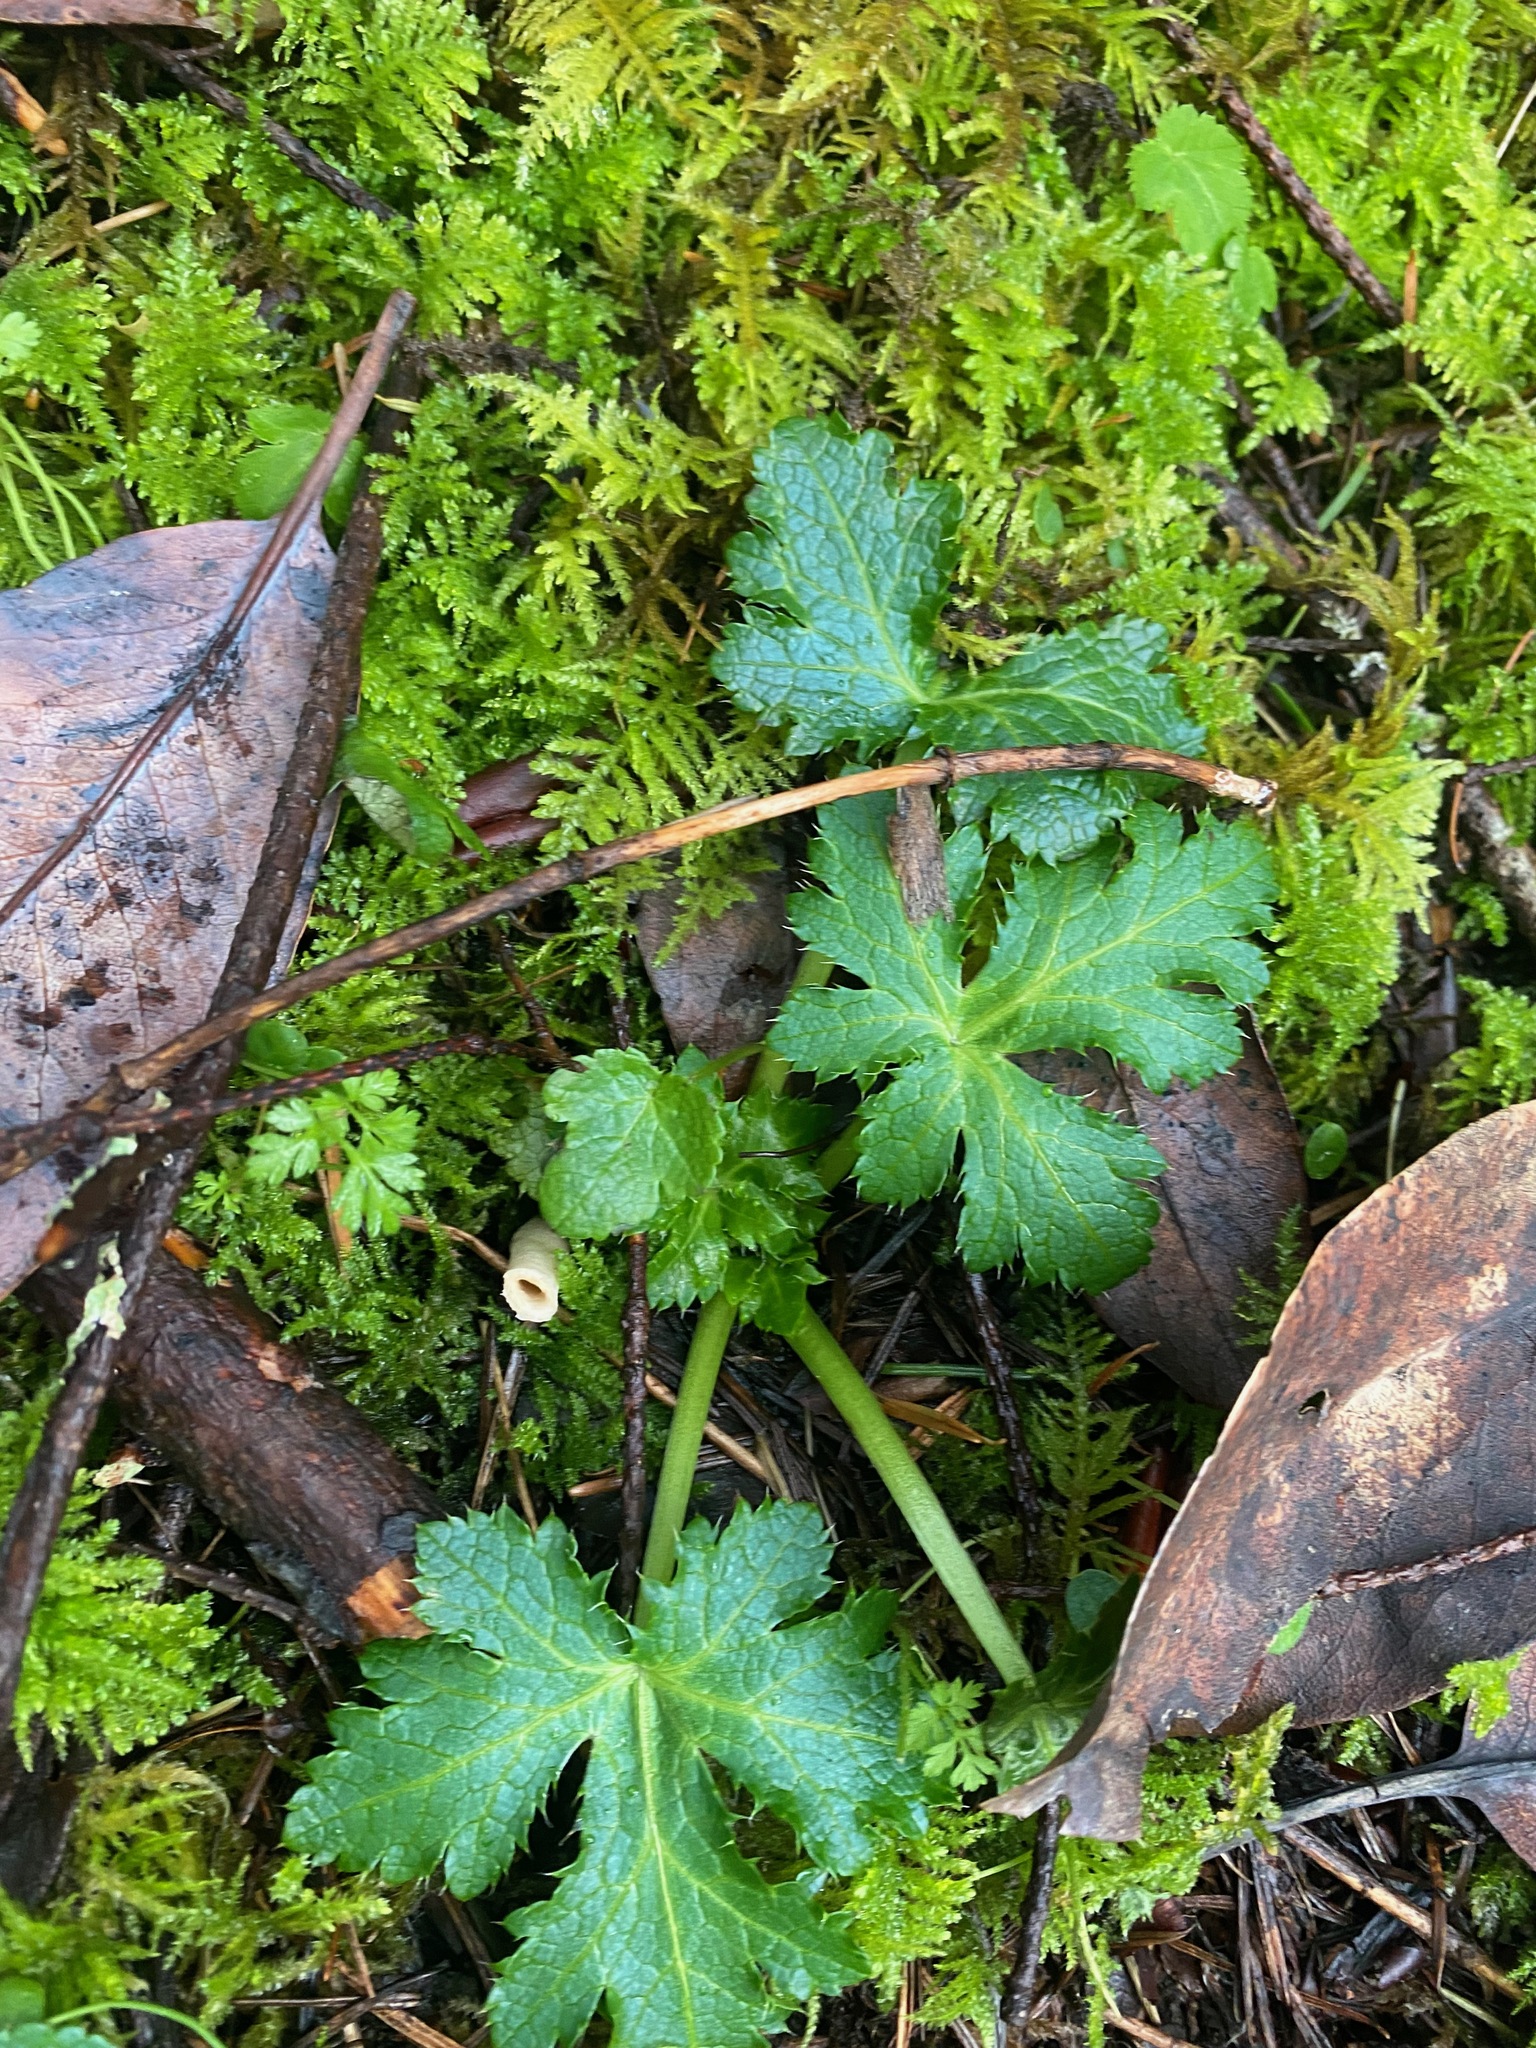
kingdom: Plantae
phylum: Tracheophyta
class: Magnoliopsida
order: Apiales
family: Apiaceae
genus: Sanicula
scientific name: Sanicula crassicaulis
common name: Western snakeroot
